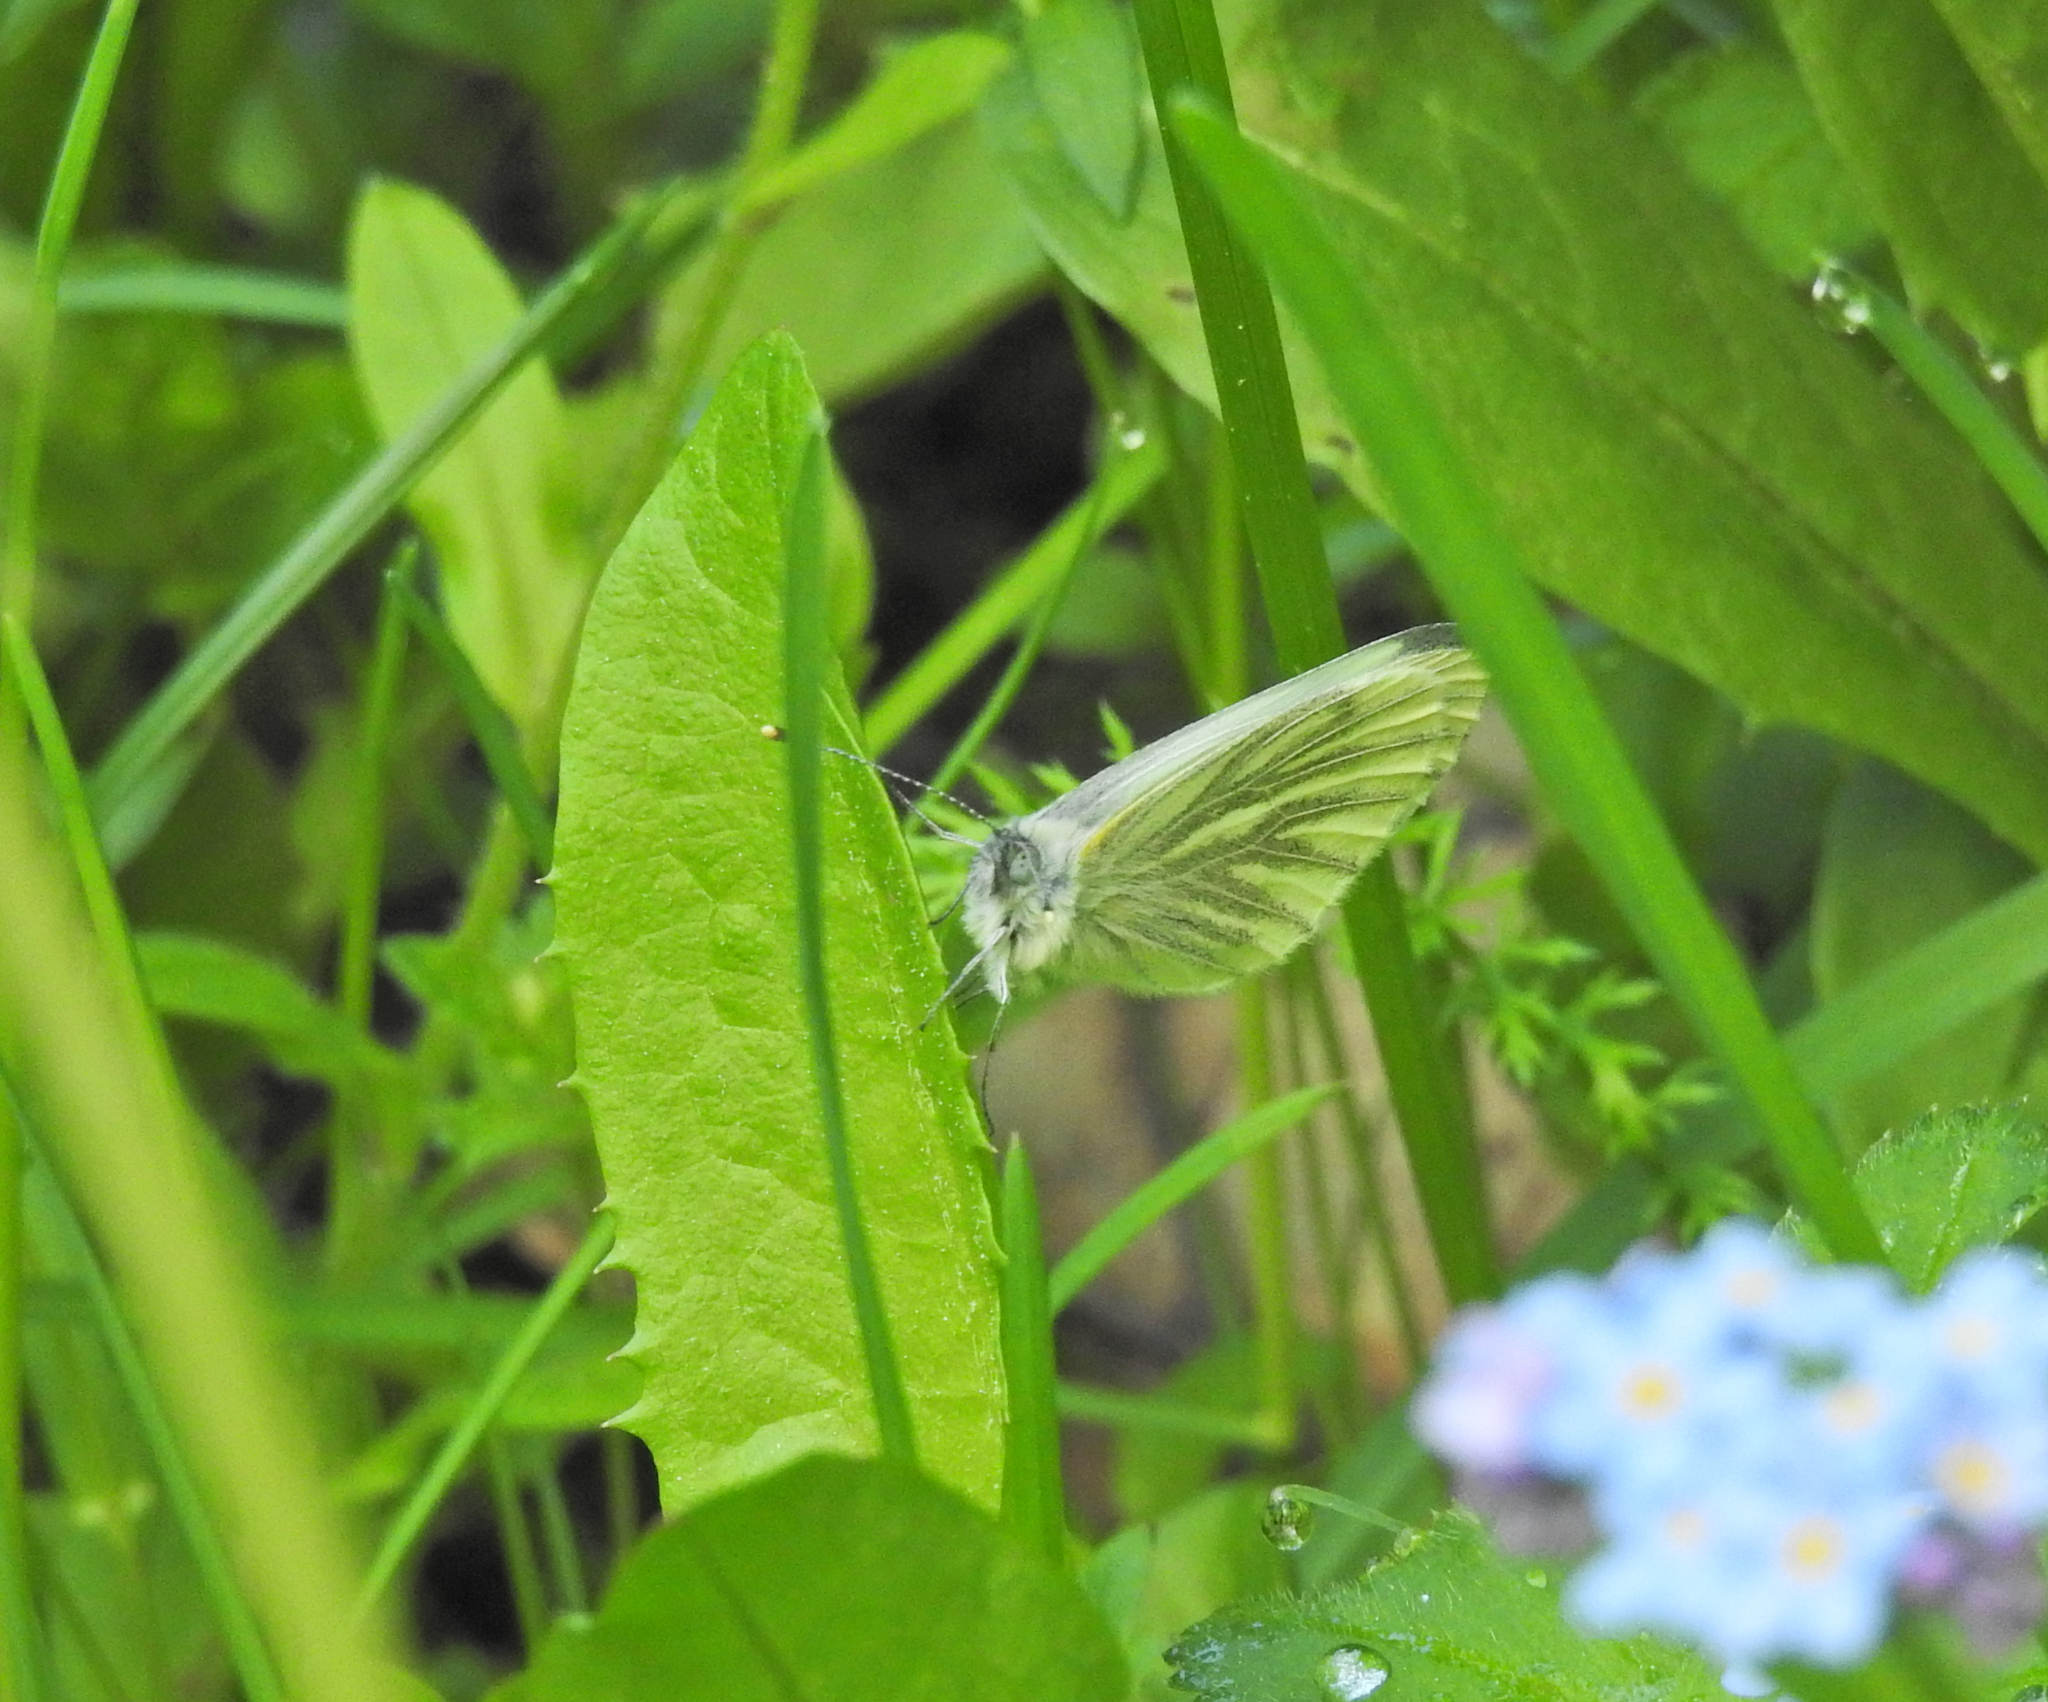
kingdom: Animalia
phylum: Arthropoda
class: Insecta
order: Lepidoptera
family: Pieridae
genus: Pieris
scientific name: Pieris napi
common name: Green-veined white
